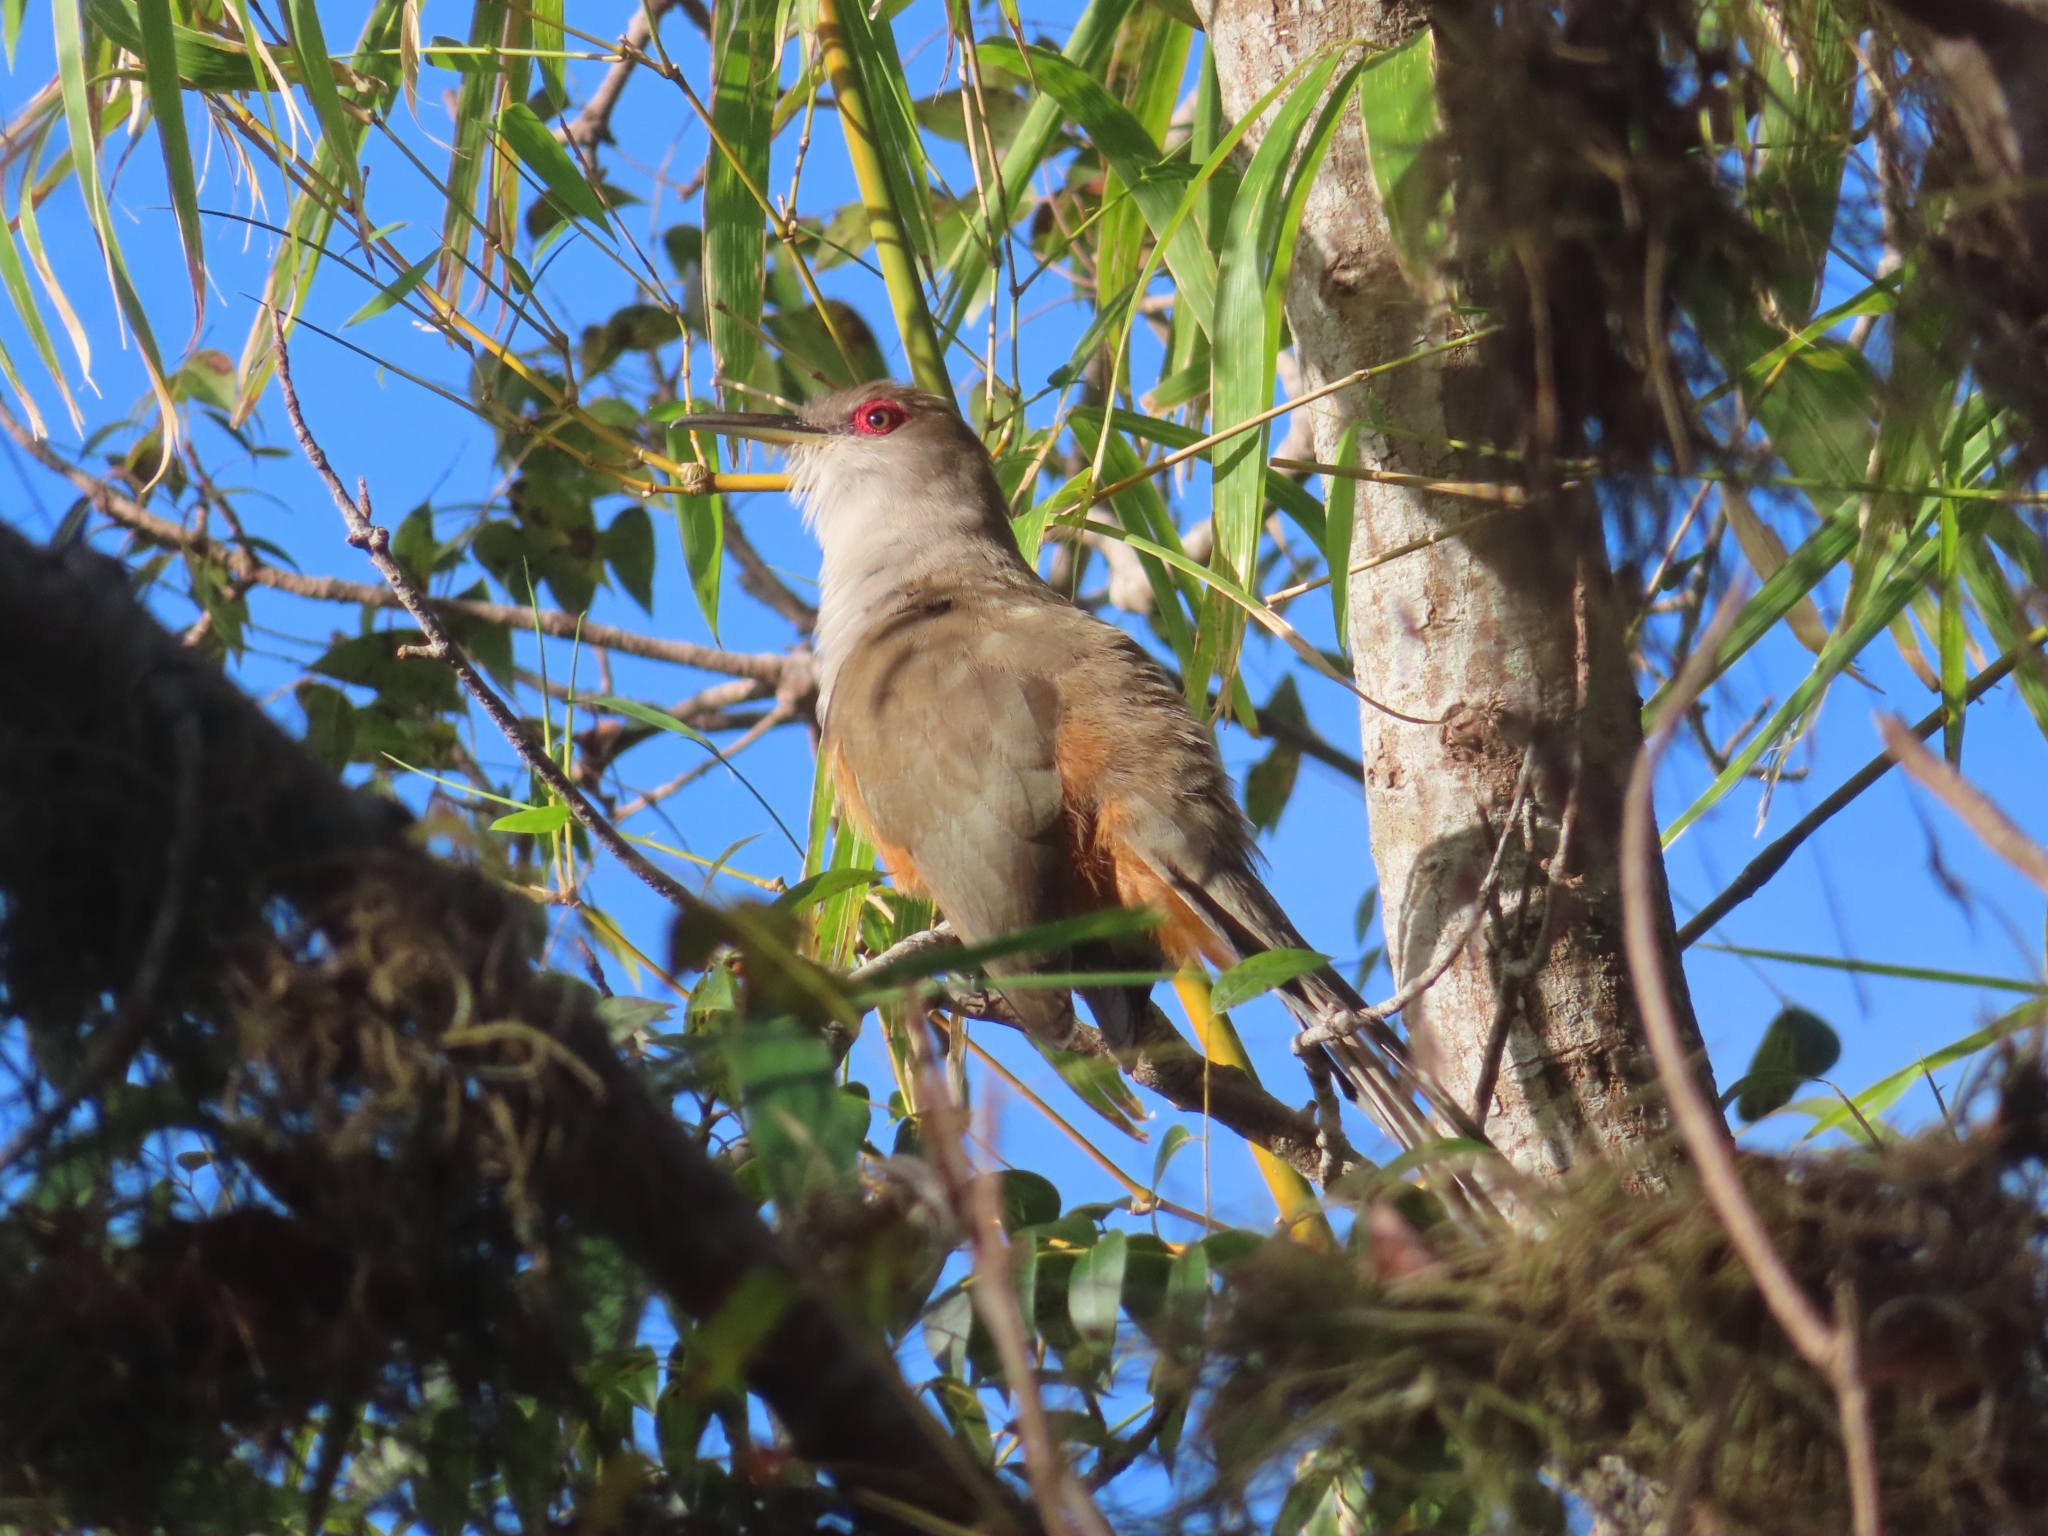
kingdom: Animalia
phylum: Chordata
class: Aves
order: Cuculiformes
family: Cuculidae
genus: Saurothera
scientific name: Saurothera vieilloti
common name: Puerto rican lizard-cuckoo
